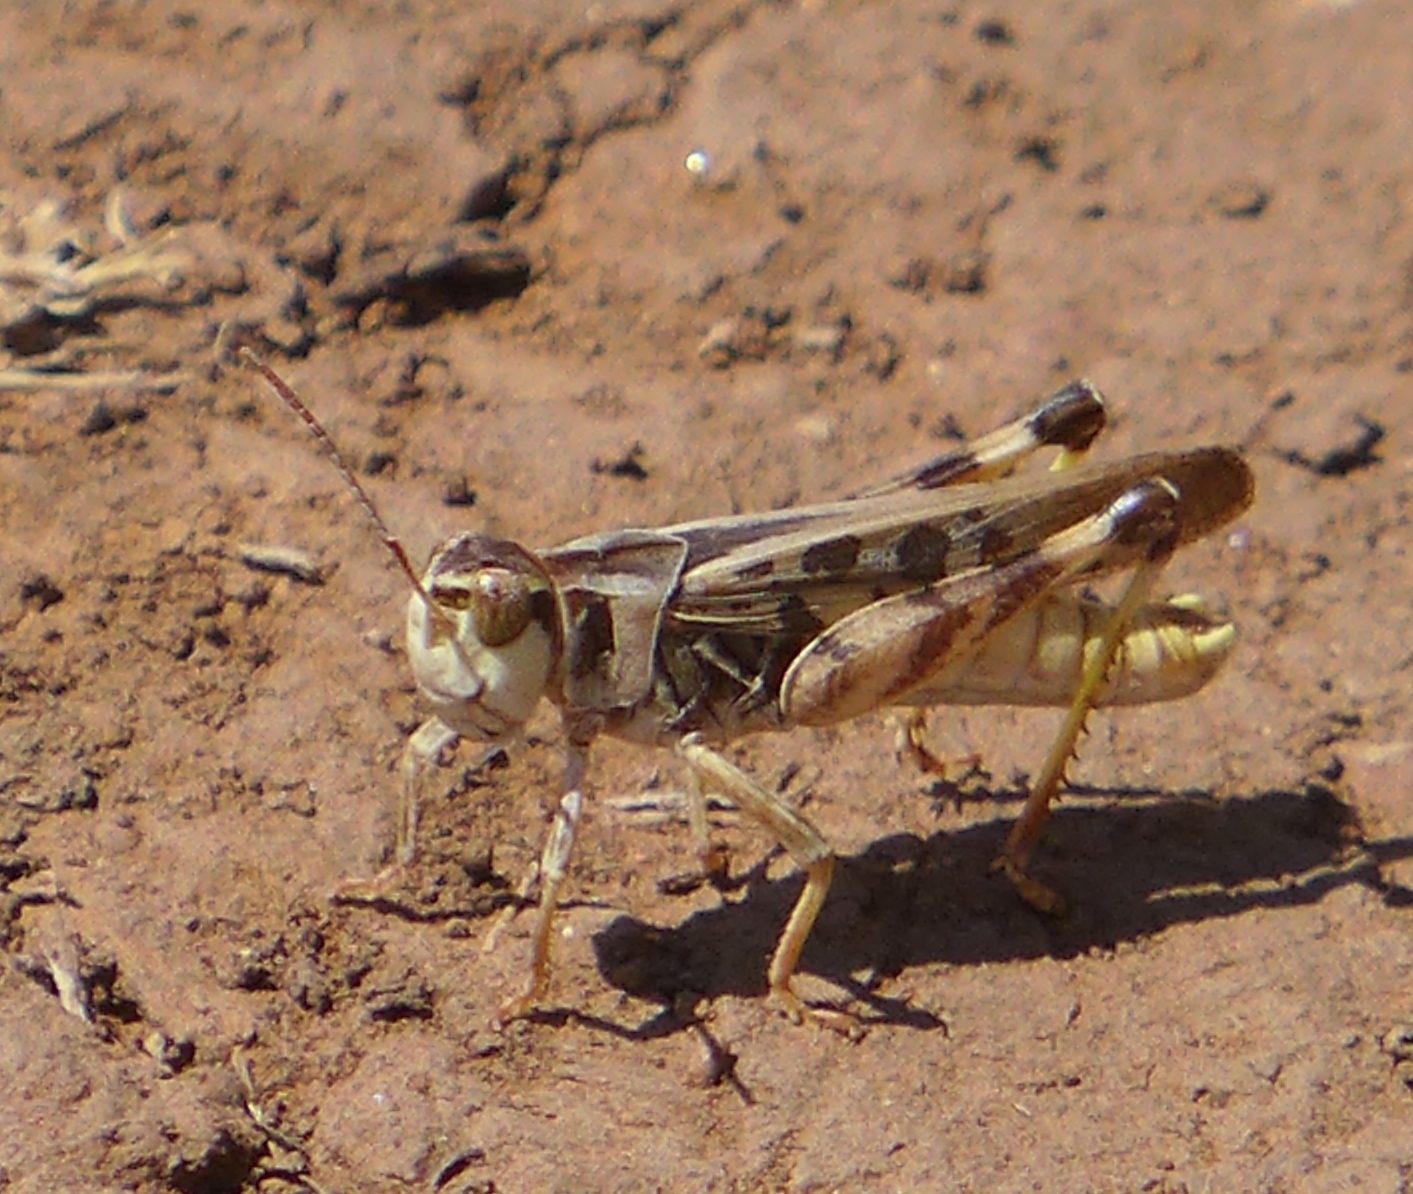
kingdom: Animalia
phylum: Arthropoda
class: Insecta
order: Orthoptera
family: Acrididae
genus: Camnula
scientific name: Camnula pellucida
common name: Clear-winged grasshopper
